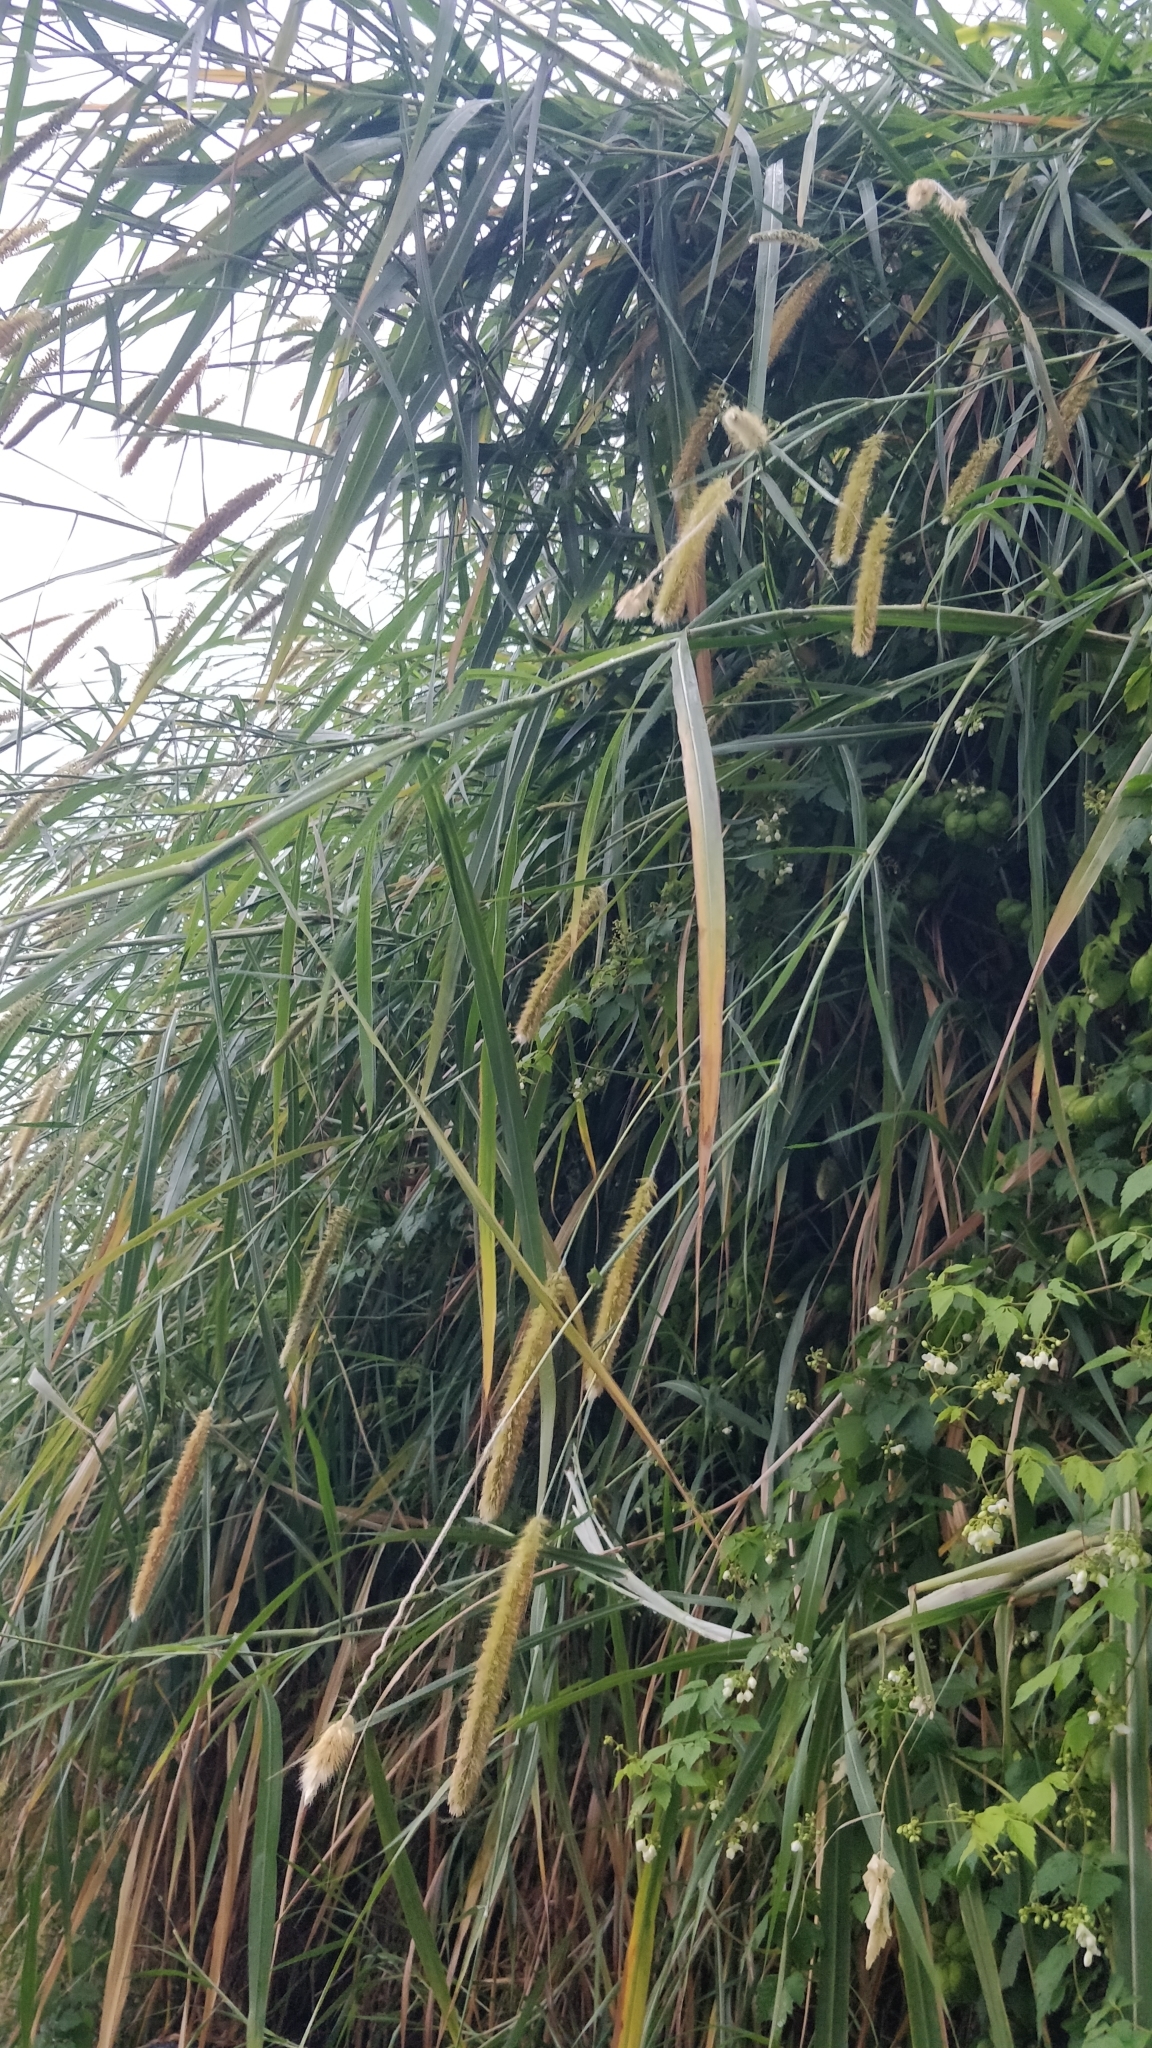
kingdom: Plantae
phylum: Tracheophyta
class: Liliopsida
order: Poales
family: Poaceae
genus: Setaria
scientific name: Setaria pumila
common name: Yellow bristle-grass
